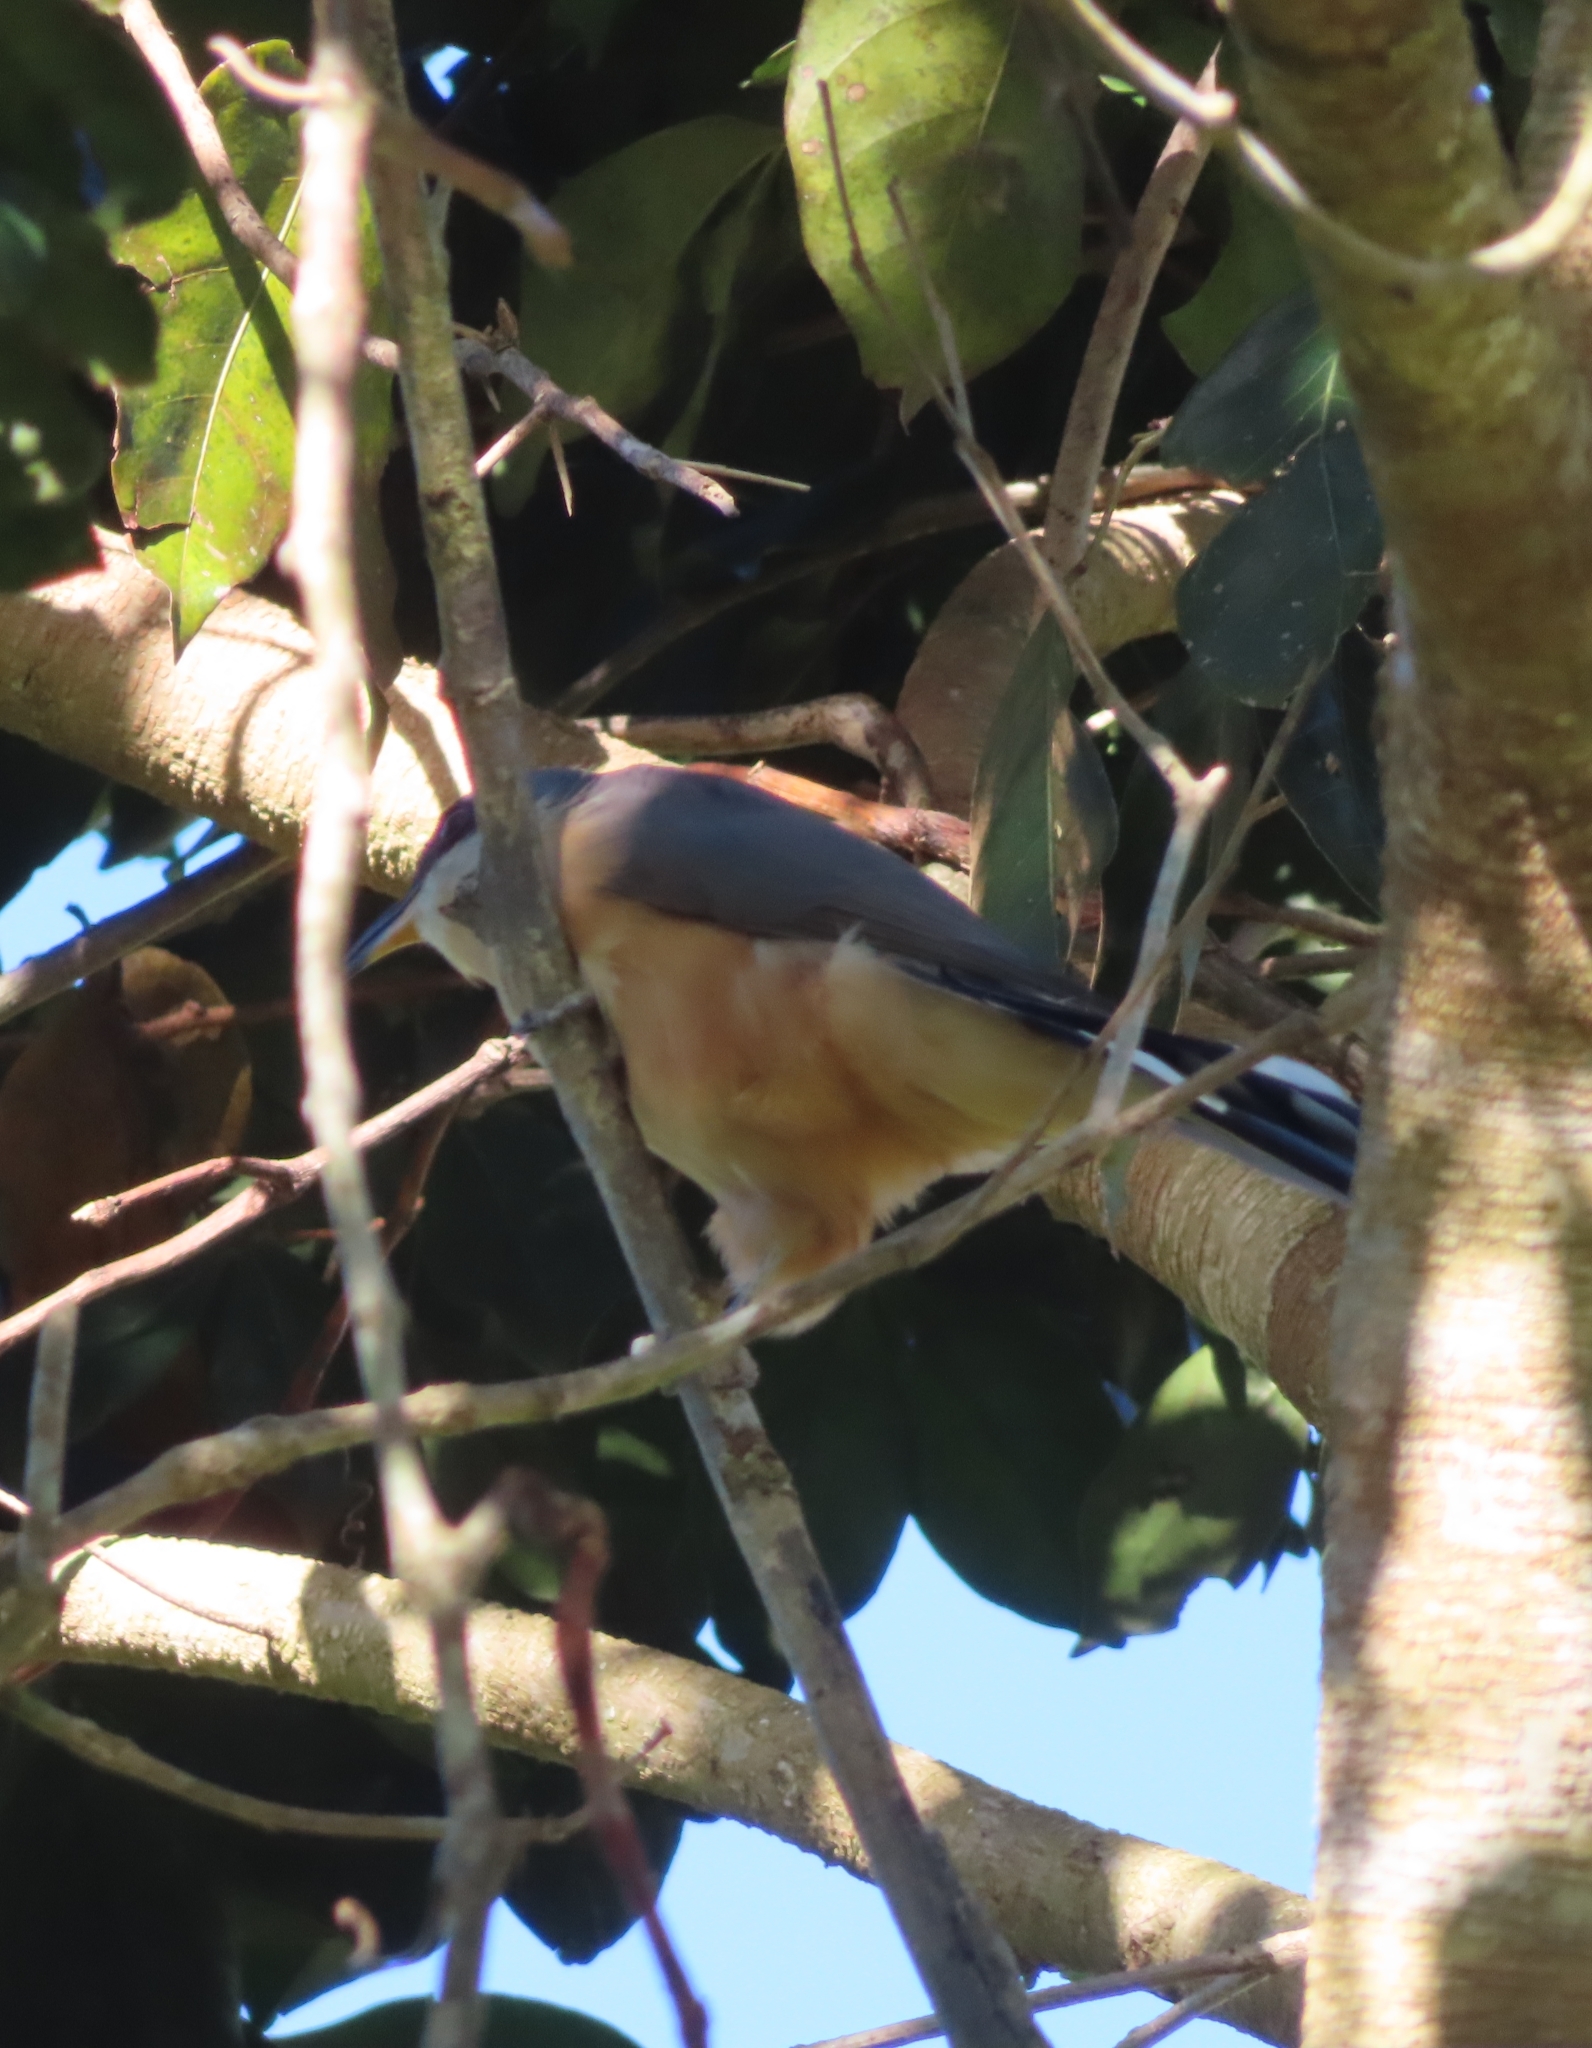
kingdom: Animalia
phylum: Chordata
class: Aves
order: Cuculiformes
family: Cuculidae
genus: Coccyzus
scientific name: Coccyzus minor
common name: Mangrove cuckoo
